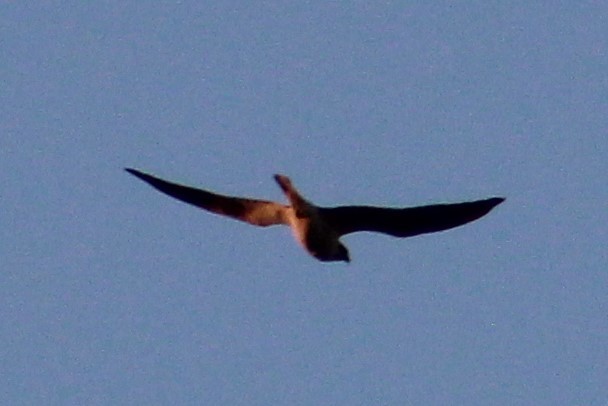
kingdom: Animalia
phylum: Chordata
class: Aves
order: Accipitriformes
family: Accipitridae
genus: Elanus
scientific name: Elanus leucurus
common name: White-tailed kite
